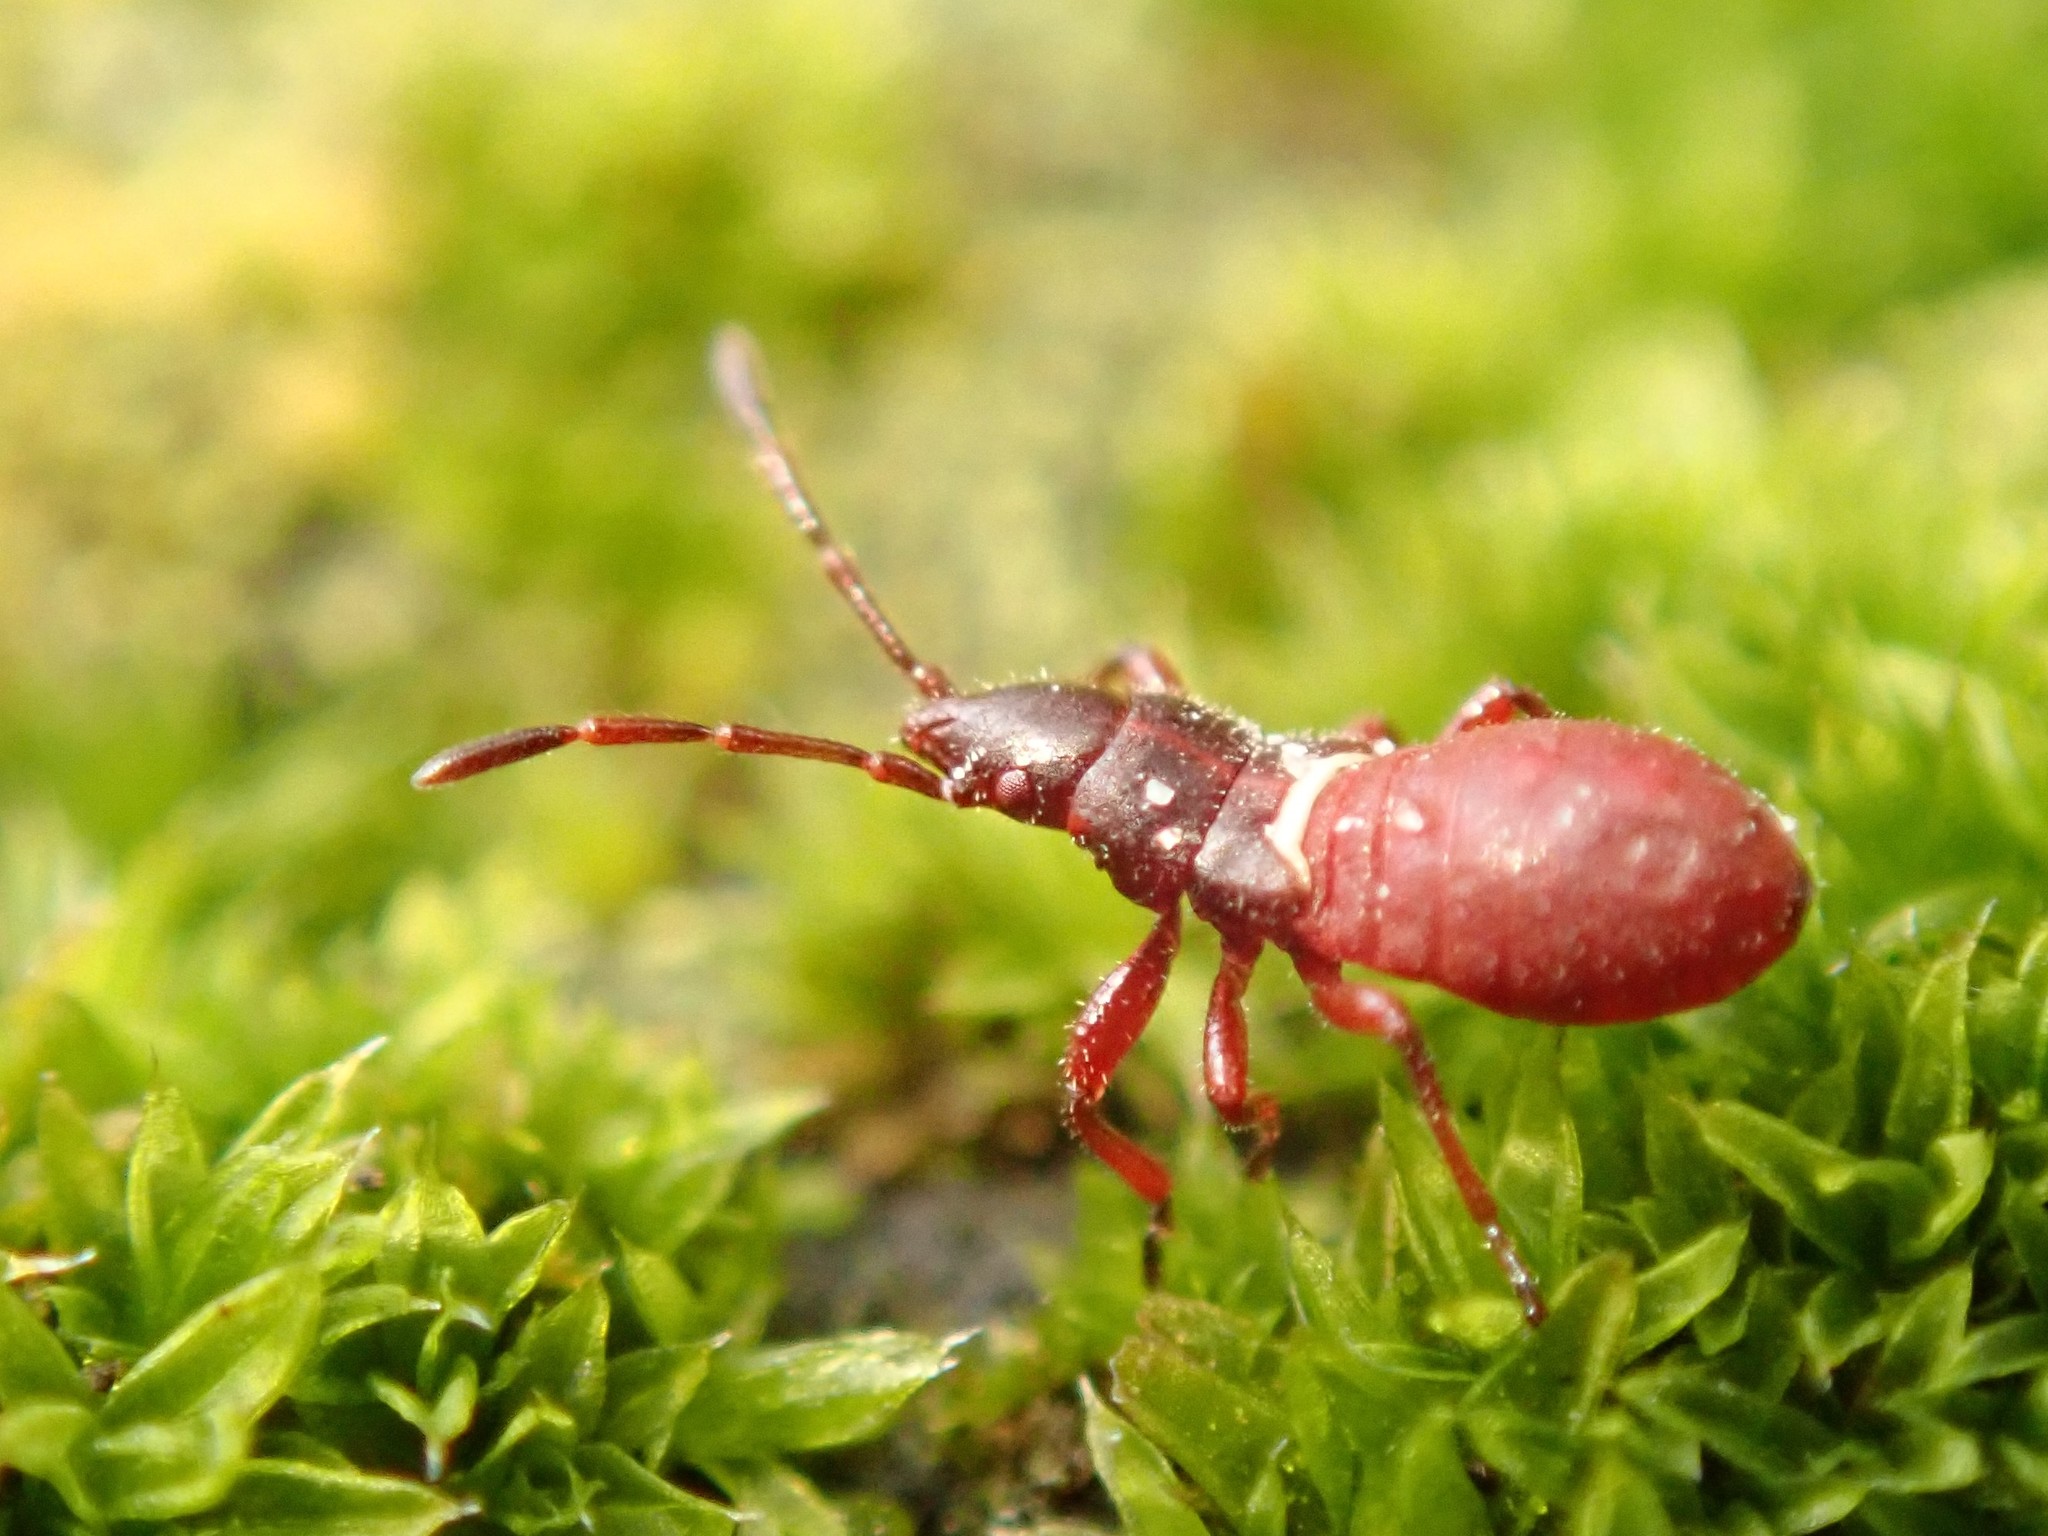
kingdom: Animalia
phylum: Arthropoda
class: Insecta
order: Hemiptera
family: Oxycarenidae
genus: Oxycarenus
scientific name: Oxycarenus lavaterae
